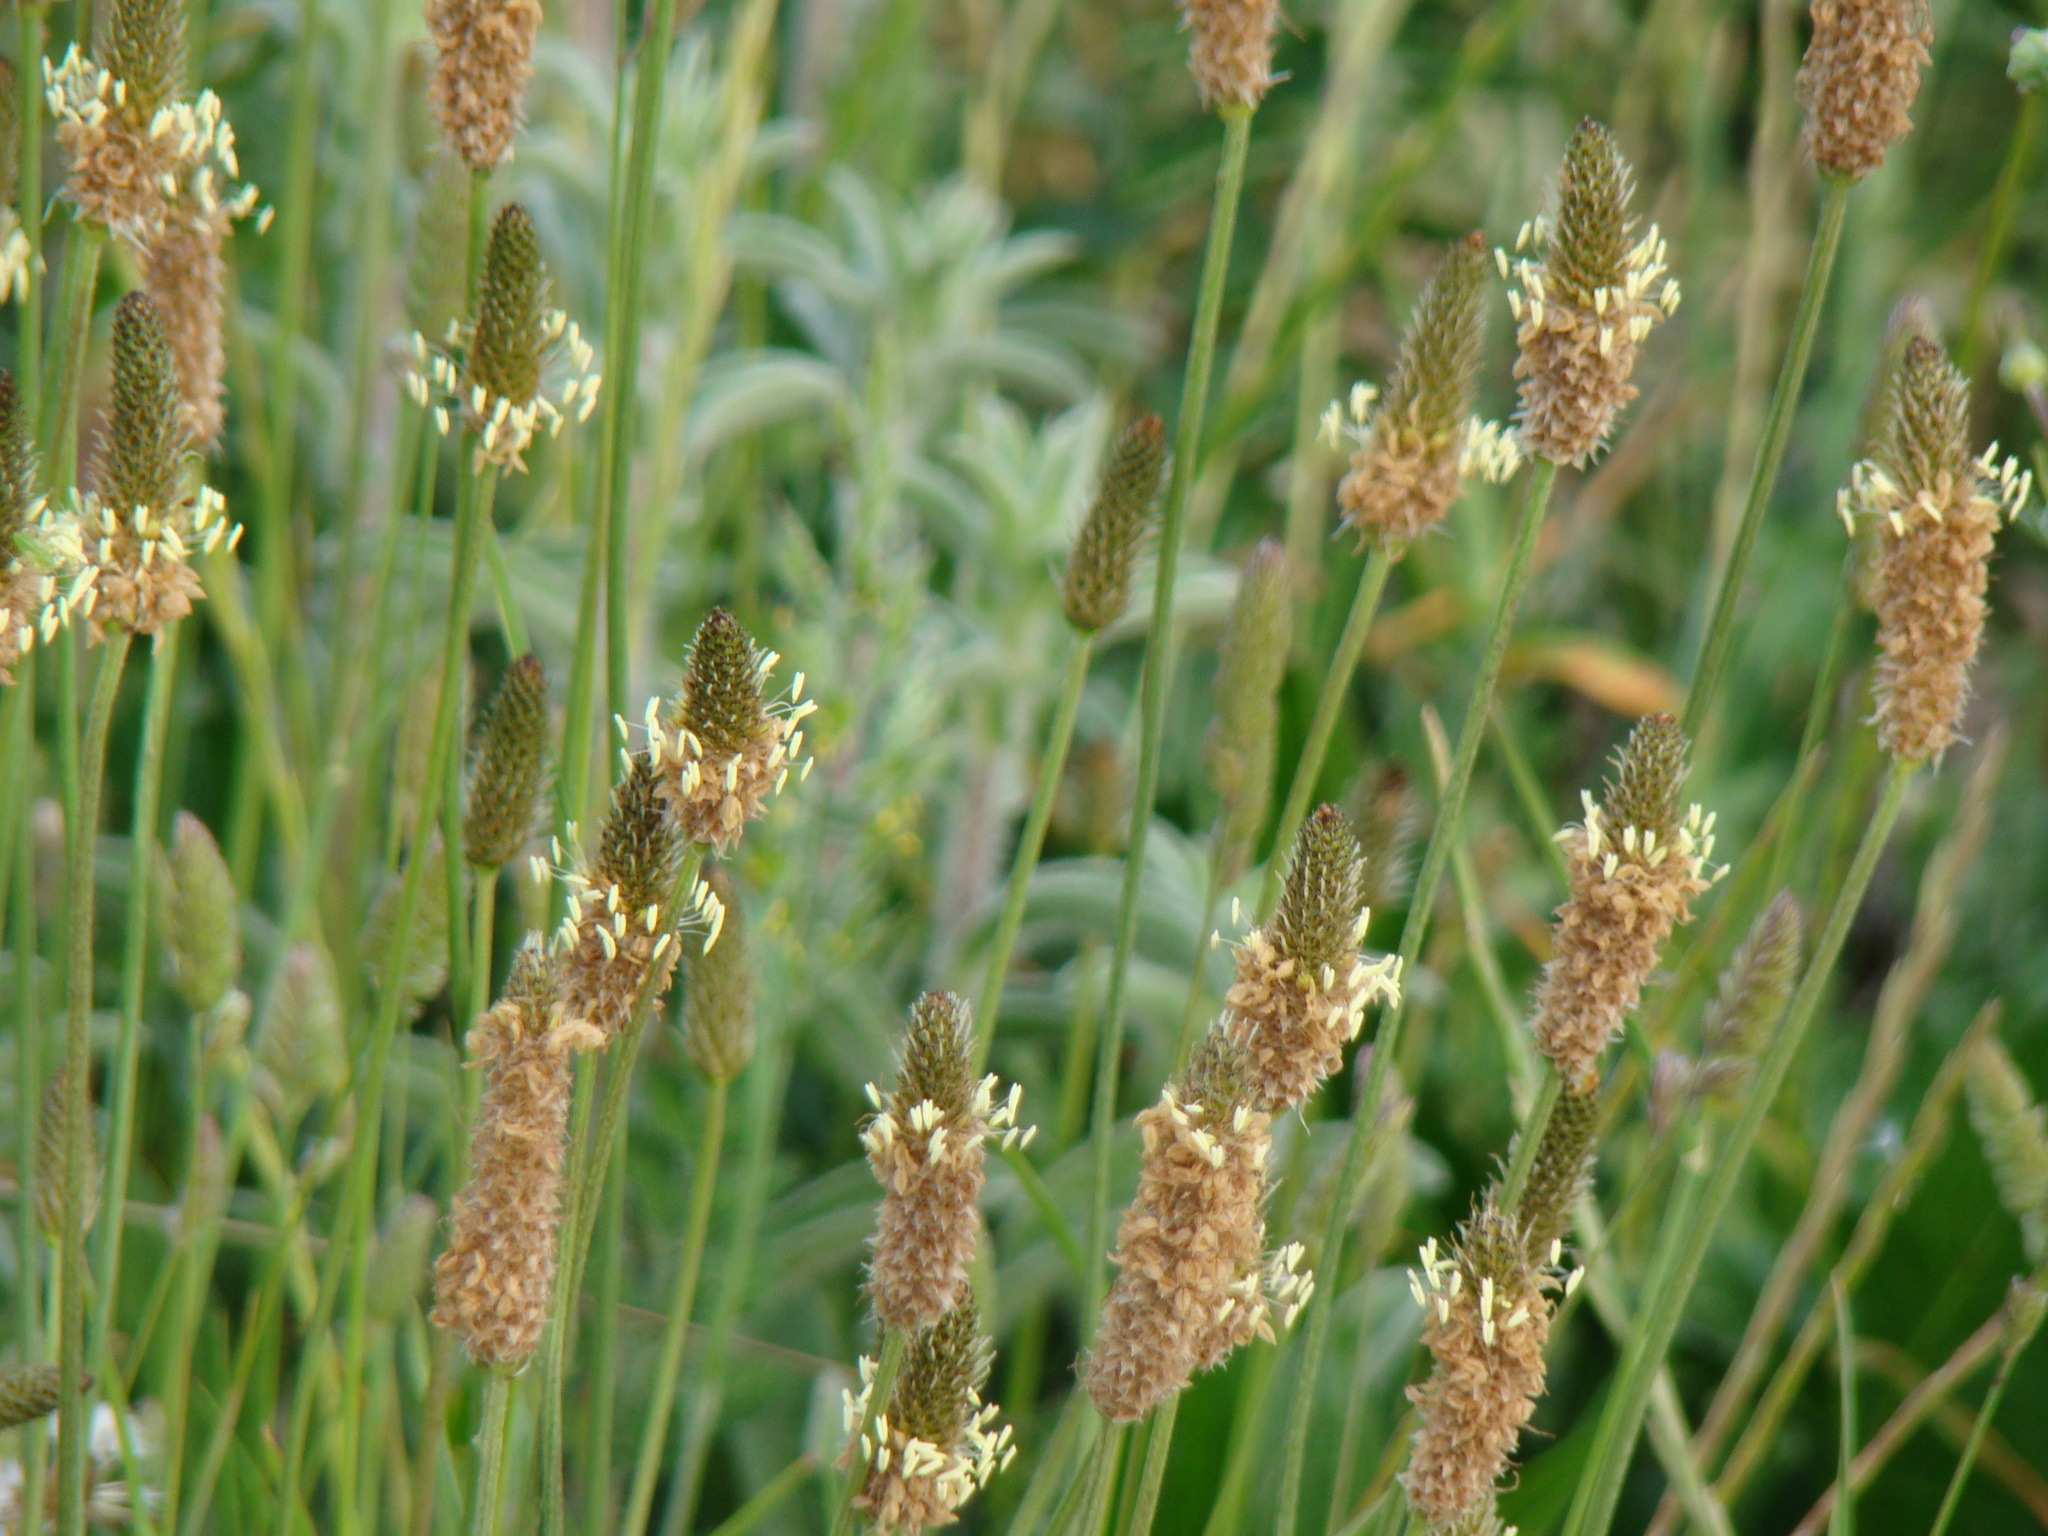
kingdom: Plantae
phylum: Tracheophyta
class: Magnoliopsida
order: Lamiales
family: Plantaginaceae
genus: Plantago
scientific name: Plantago lanceolata
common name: Ribwort plantain
